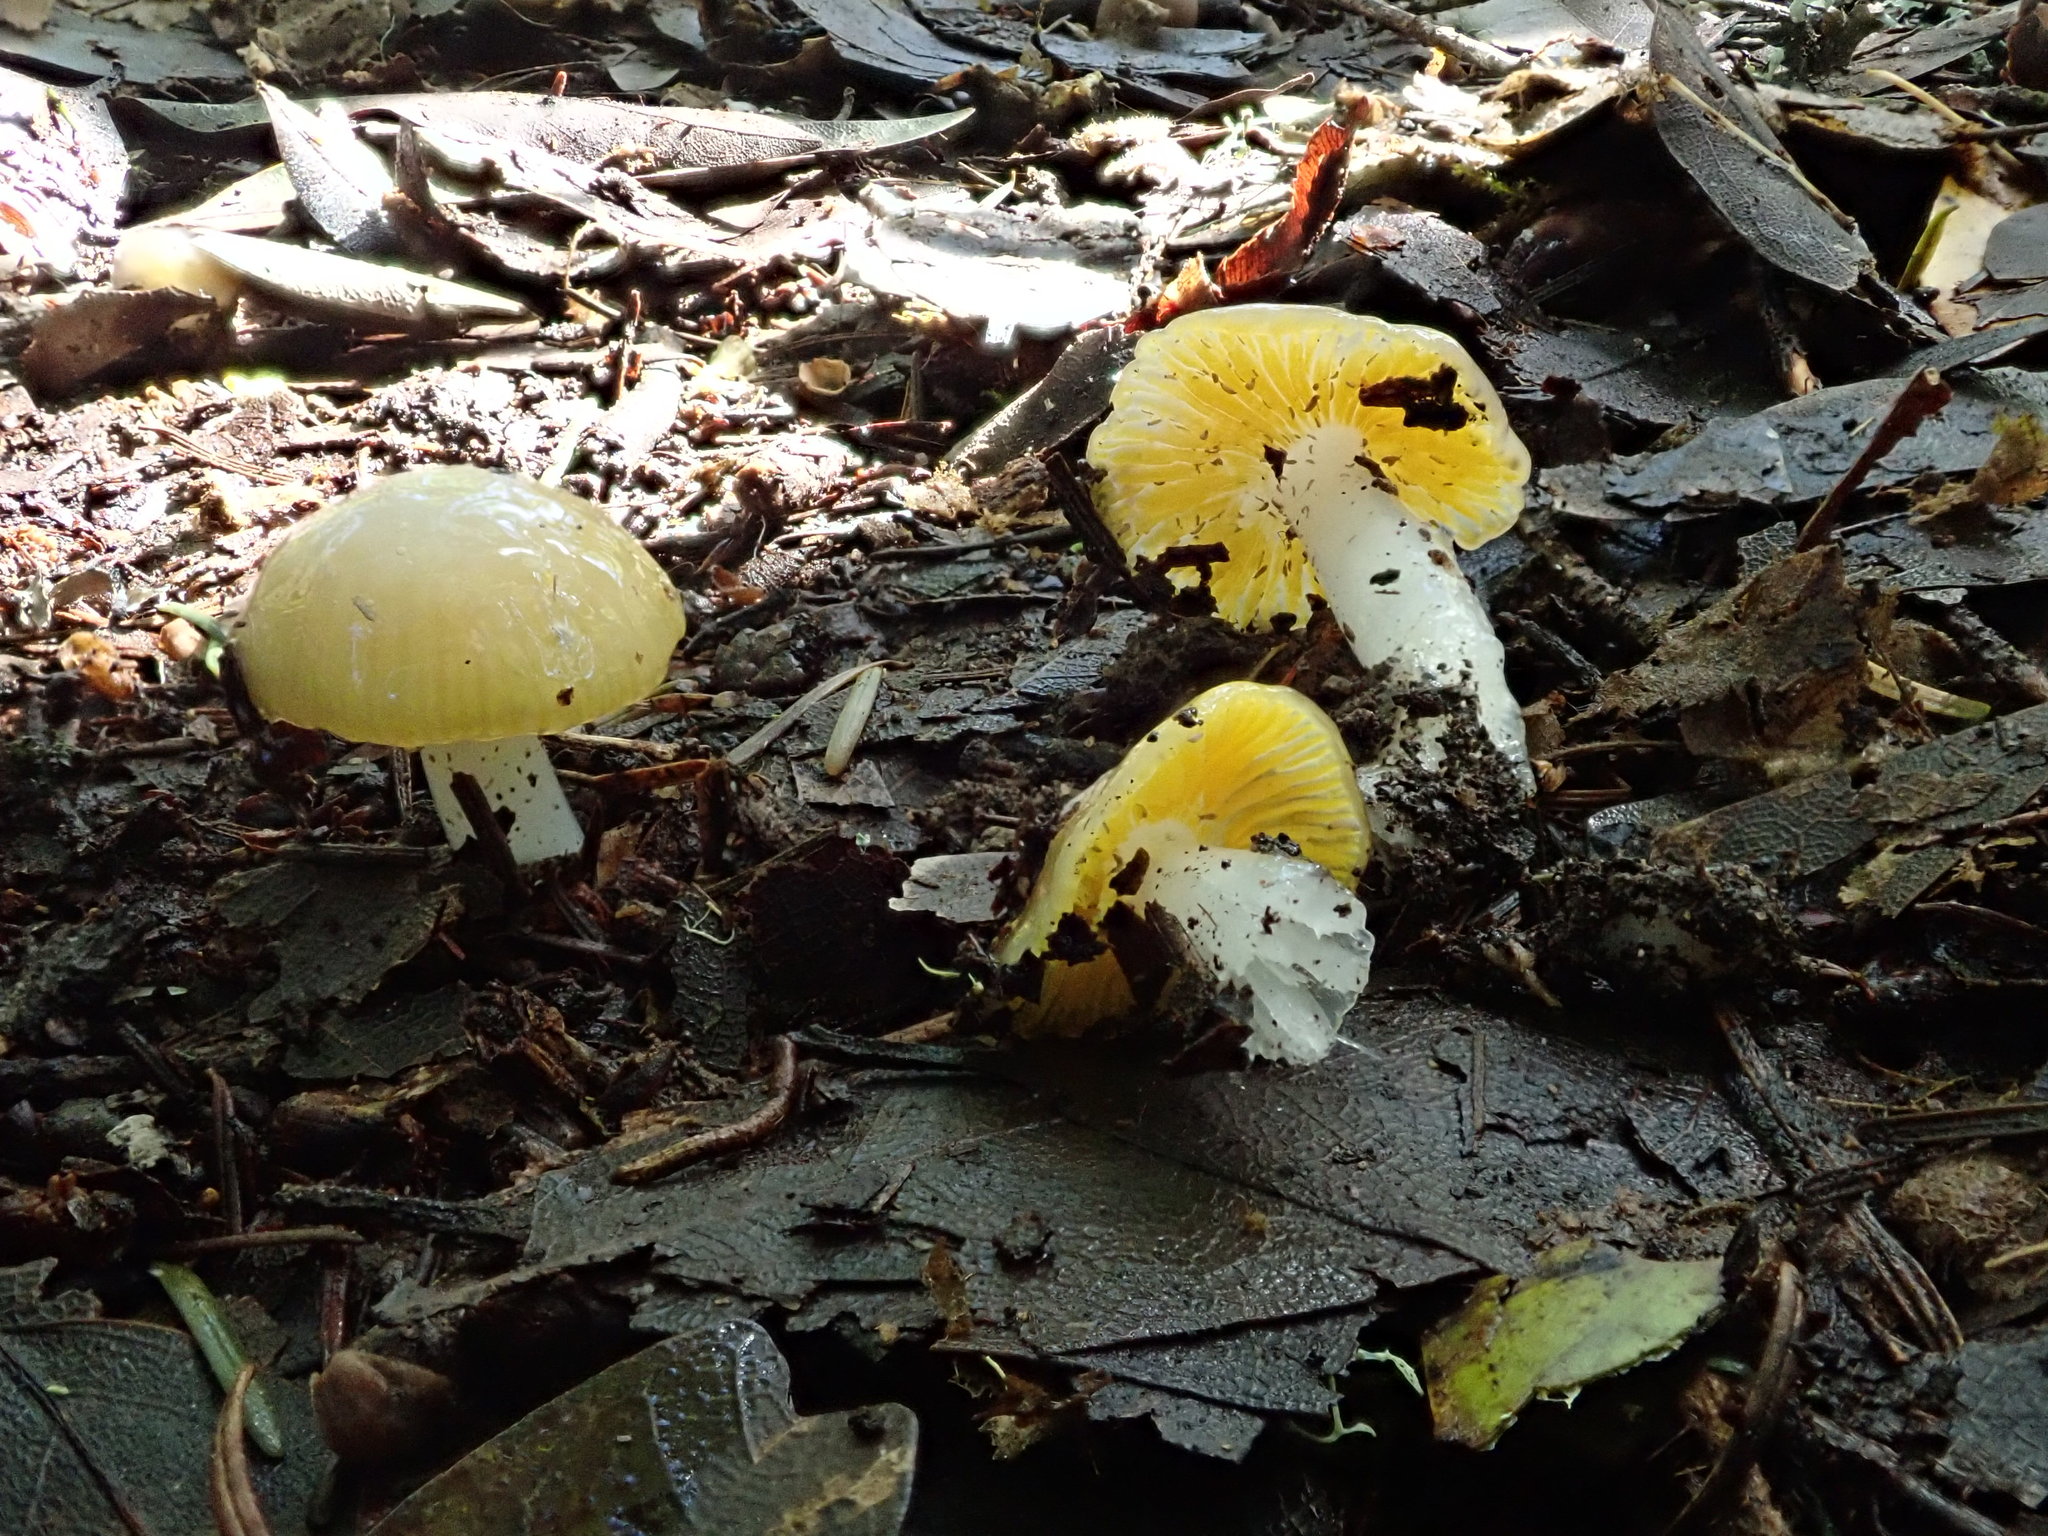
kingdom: Fungi
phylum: Basidiomycota
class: Agaricomycetes
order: Agaricales
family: Hygrophoraceae
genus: Hygrocybe
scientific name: Hygrocybe flavifolia
